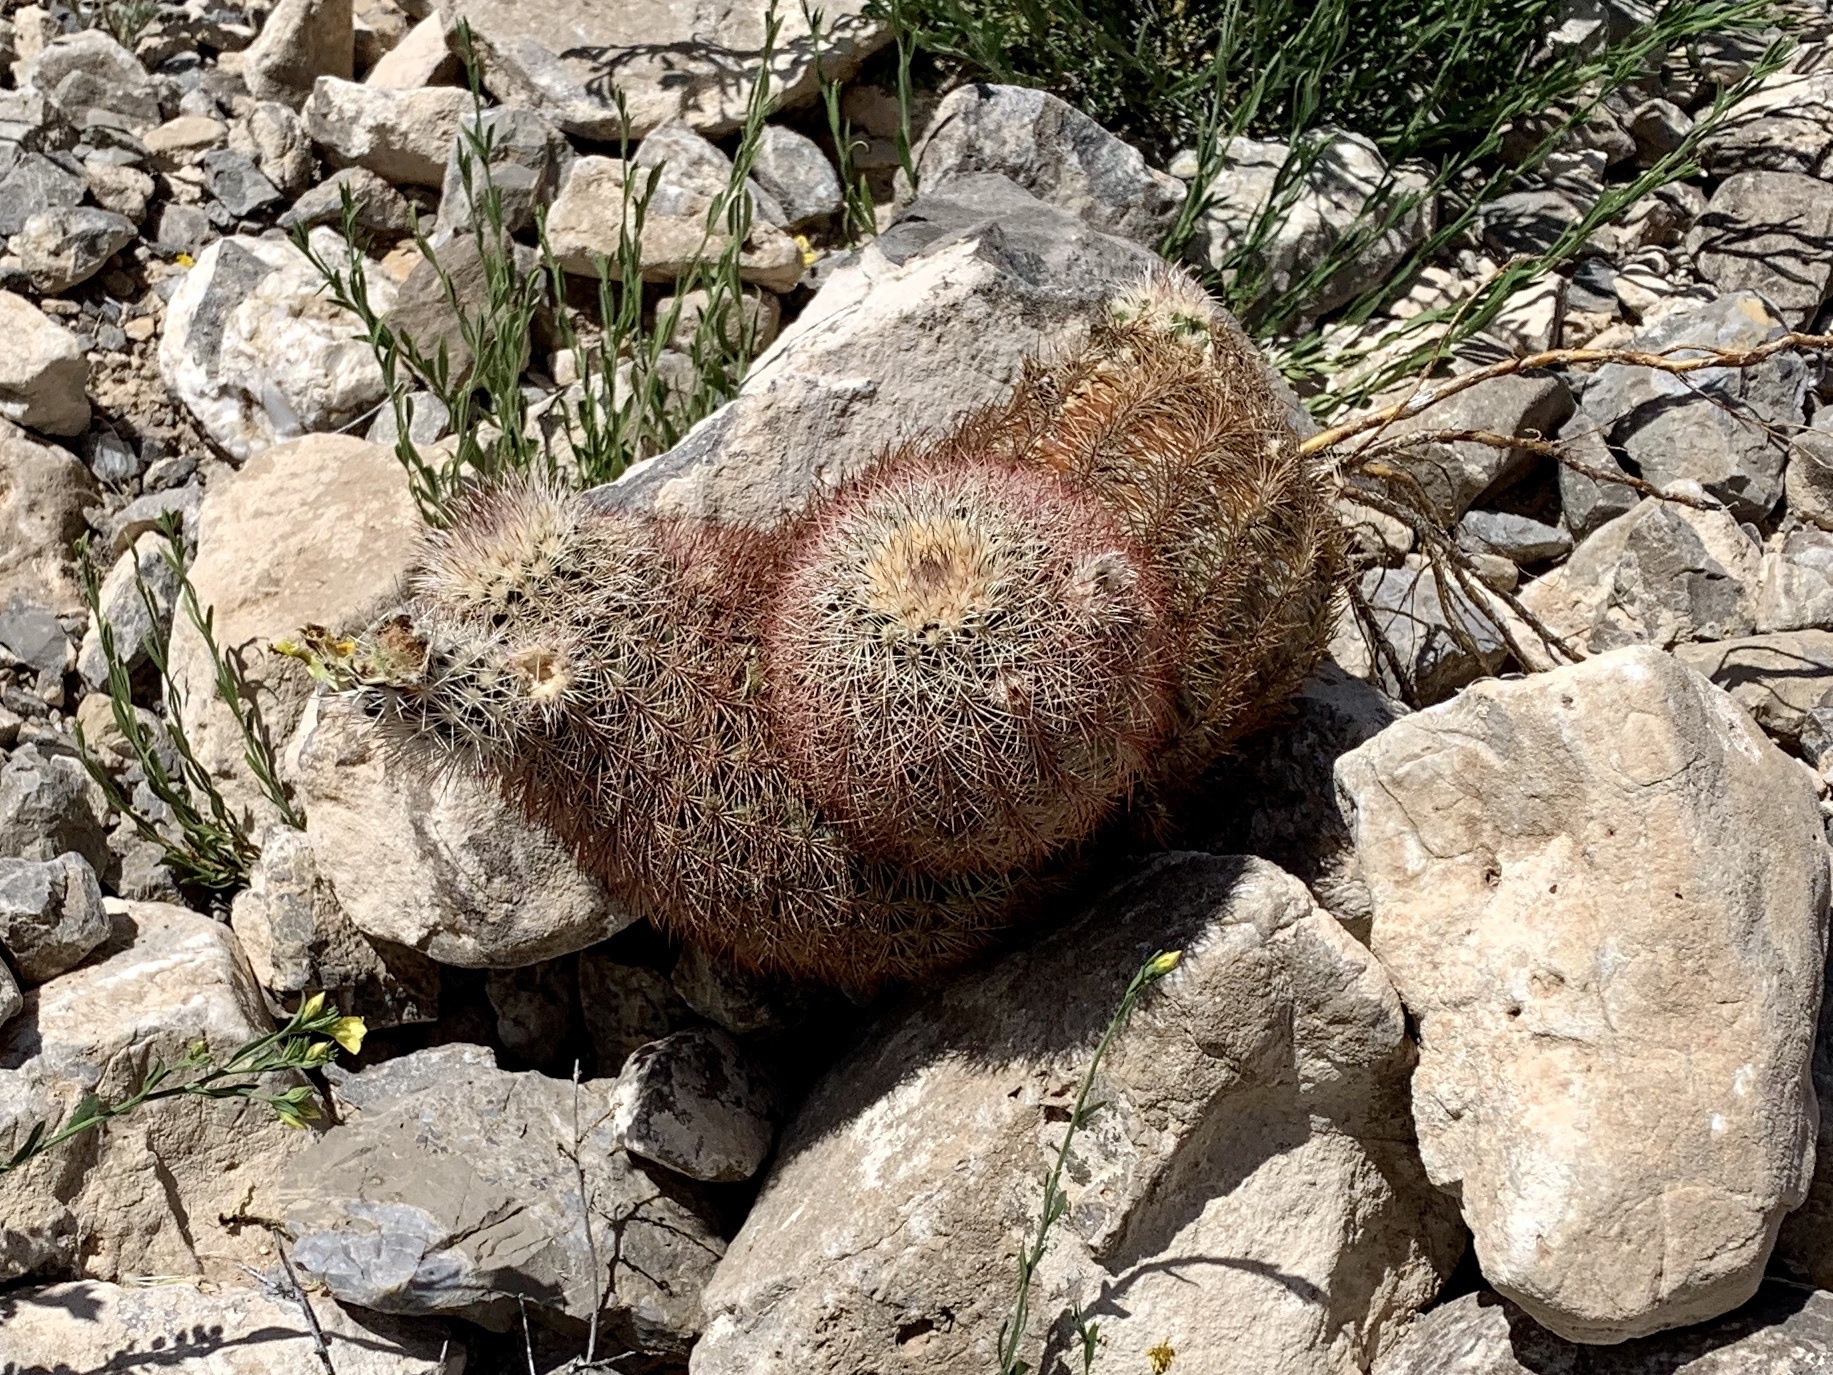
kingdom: Plantae
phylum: Tracheophyta
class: Magnoliopsida
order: Caryophyllales
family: Cactaceae
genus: Echinocereus
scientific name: Echinocereus dasyacanthus
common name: Spiny hedgehog cactus
